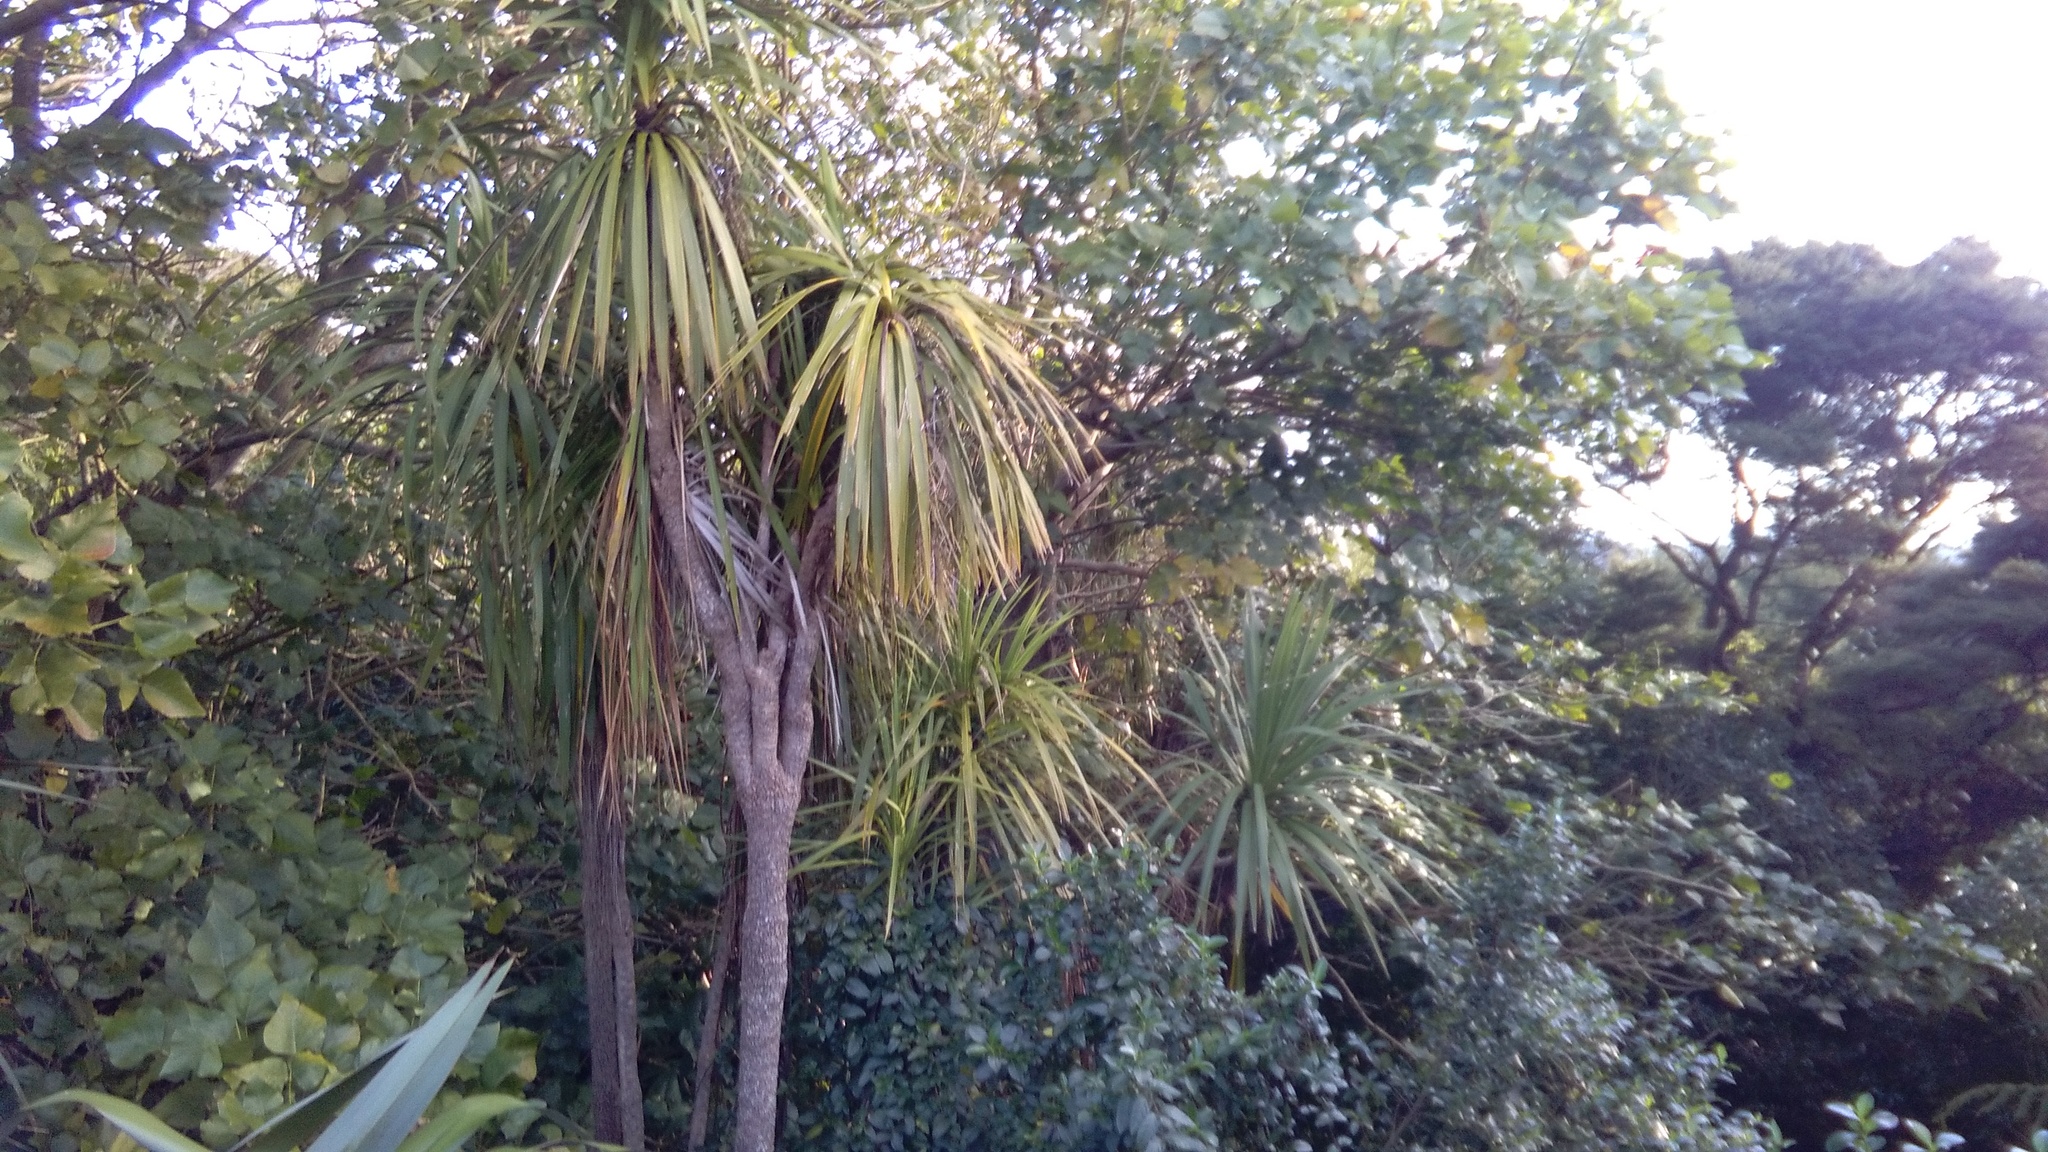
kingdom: Plantae
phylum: Tracheophyta
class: Liliopsida
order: Asparagales
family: Asparagaceae
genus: Cordyline
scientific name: Cordyline australis
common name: Cabbage-palm
